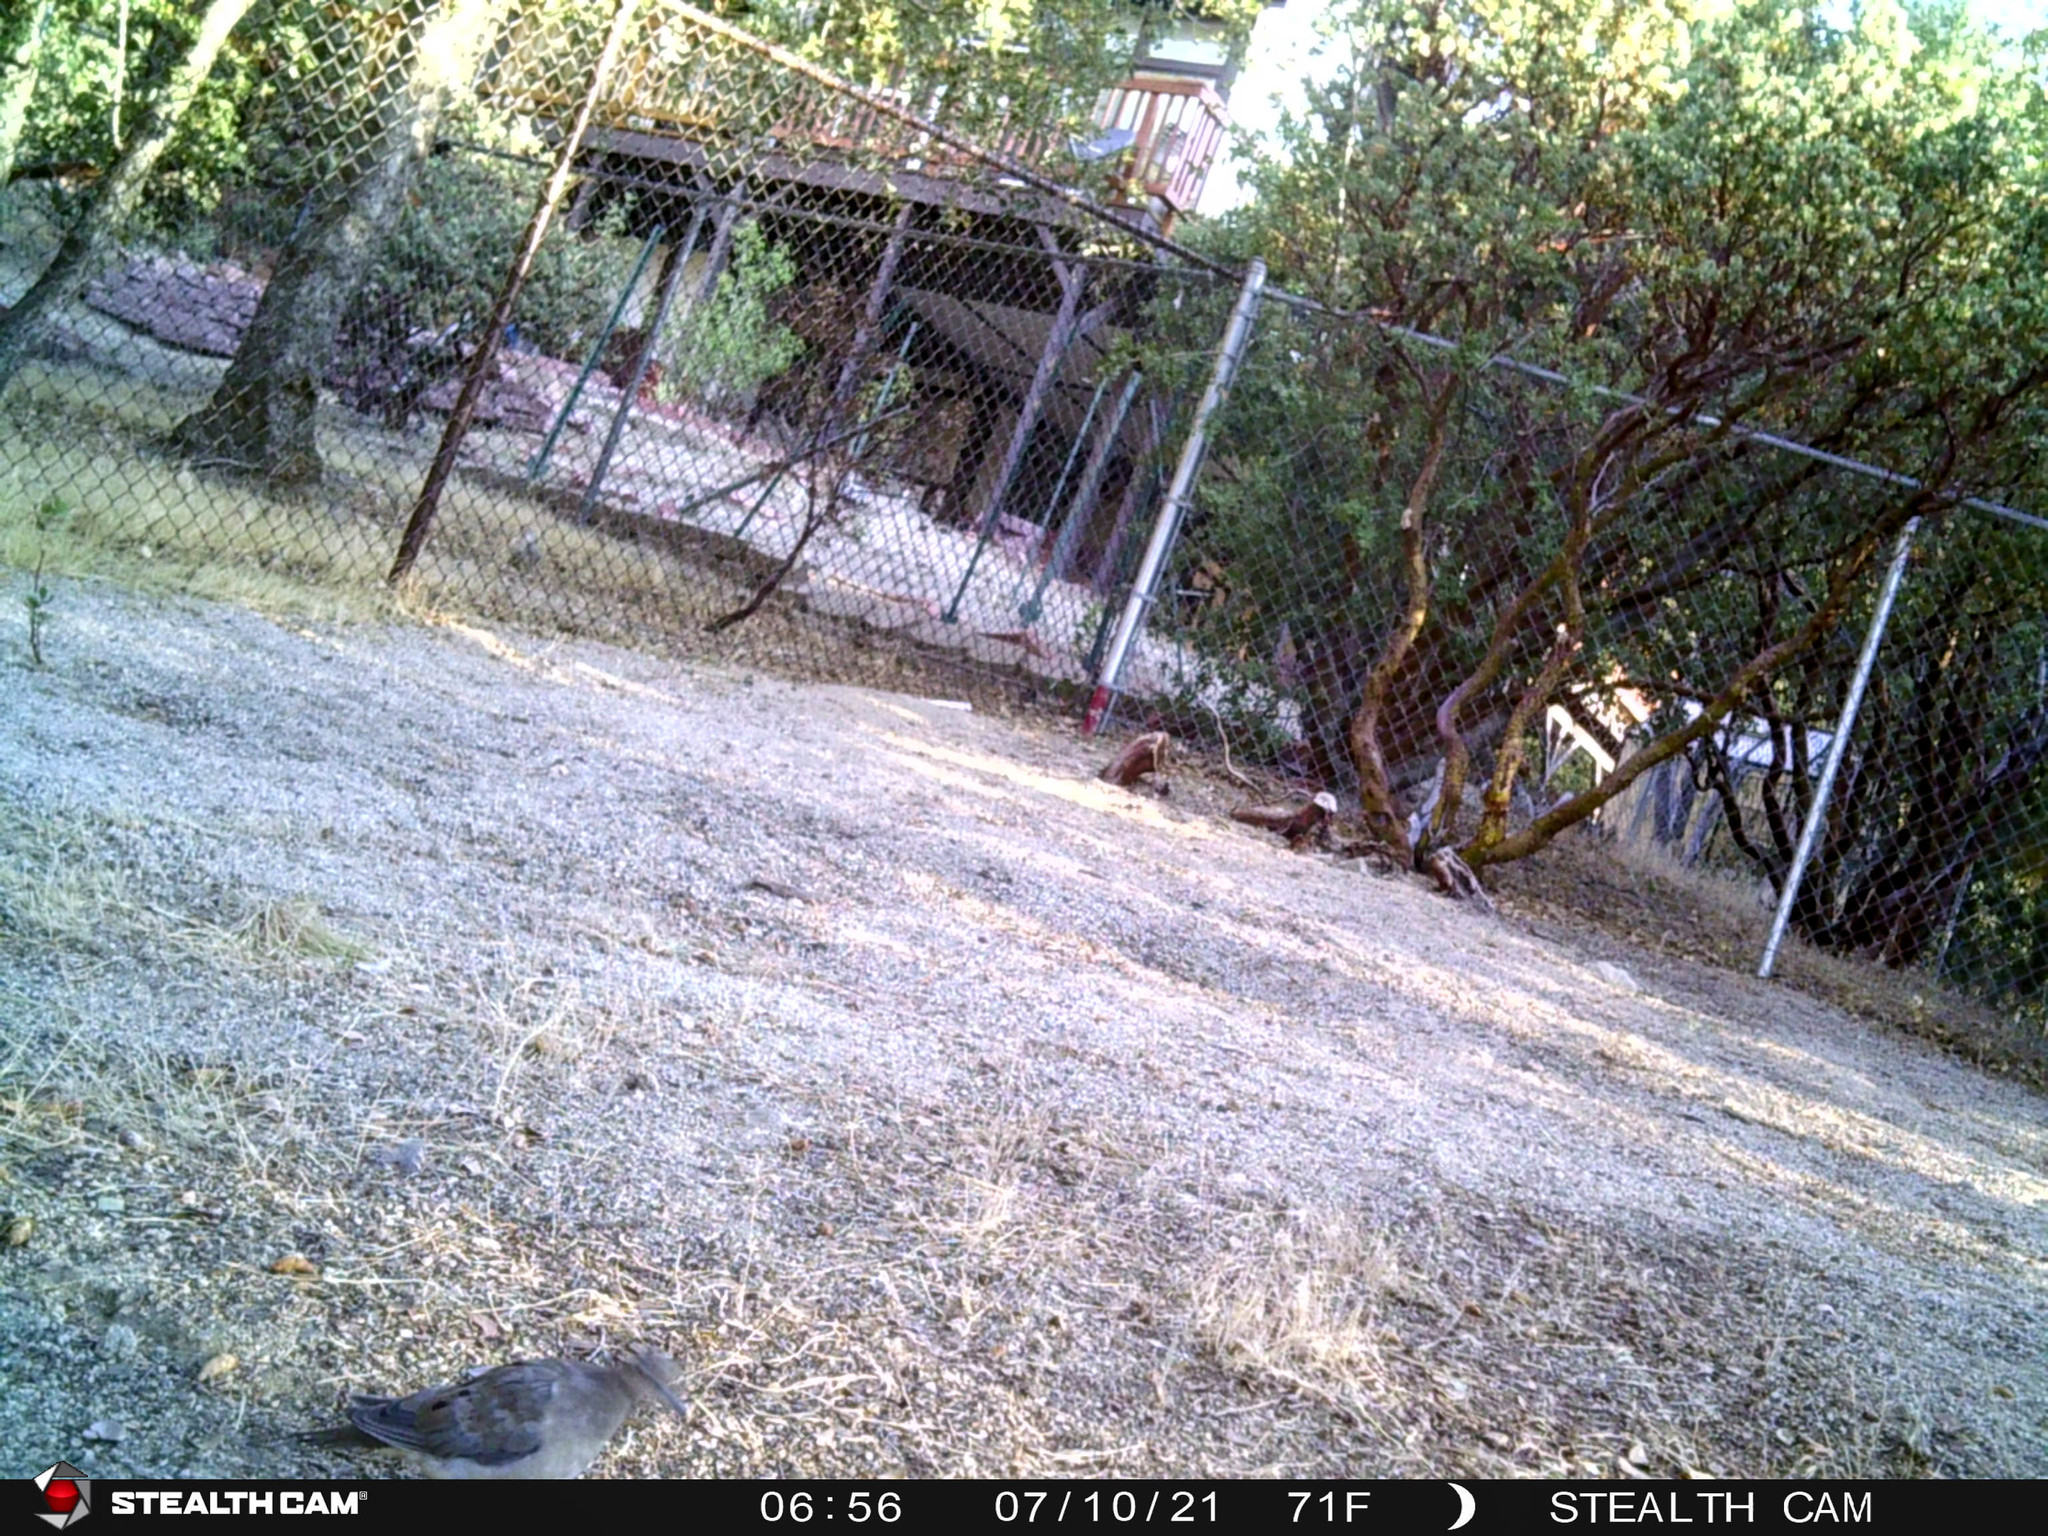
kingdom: Animalia
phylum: Chordata
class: Aves
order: Columbiformes
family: Columbidae
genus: Zenaida
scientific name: Zenaida macroura
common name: Mourning dove
